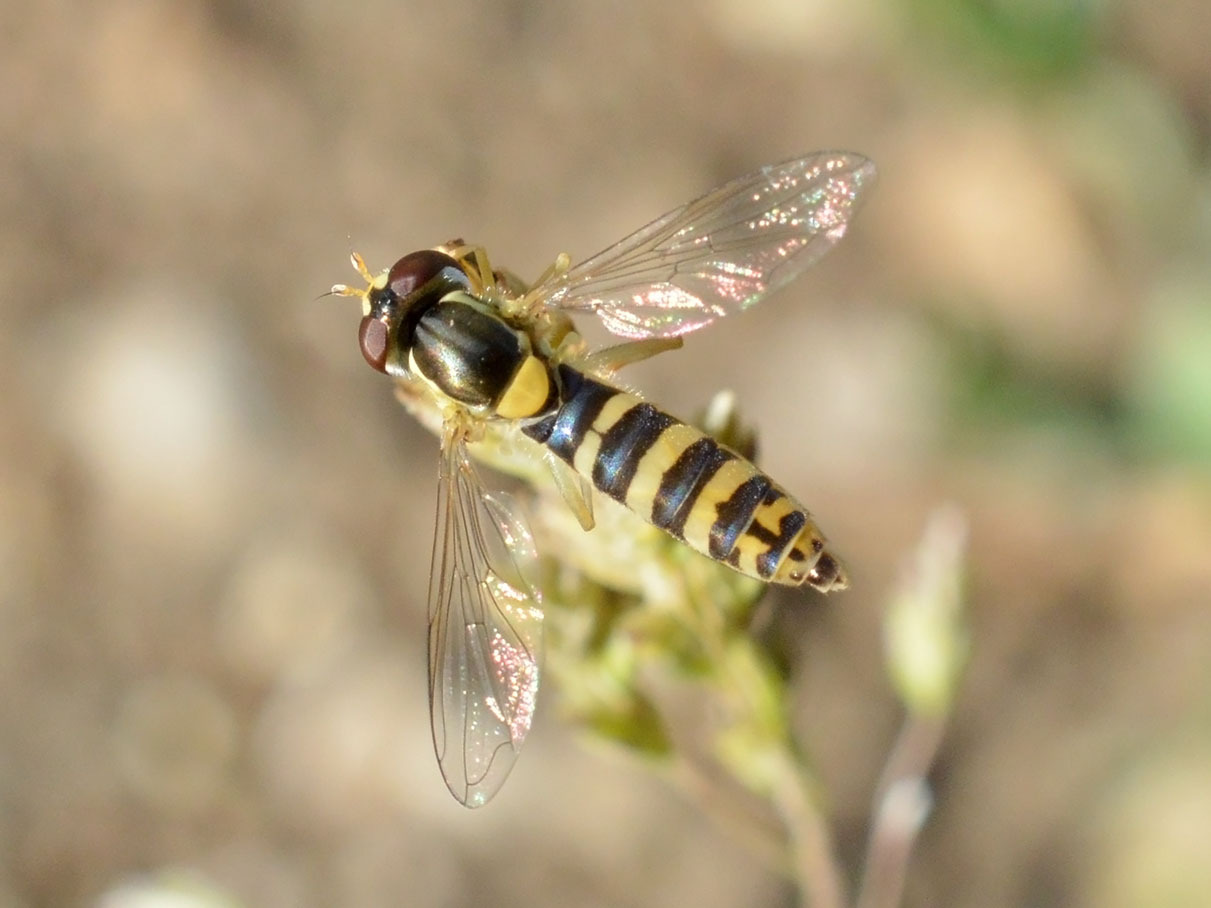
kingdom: Animalia
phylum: Arthropoda
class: Insecta
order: Diptera
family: Syrphidae
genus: Sphaerophoria
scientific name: Sphaerophoria
